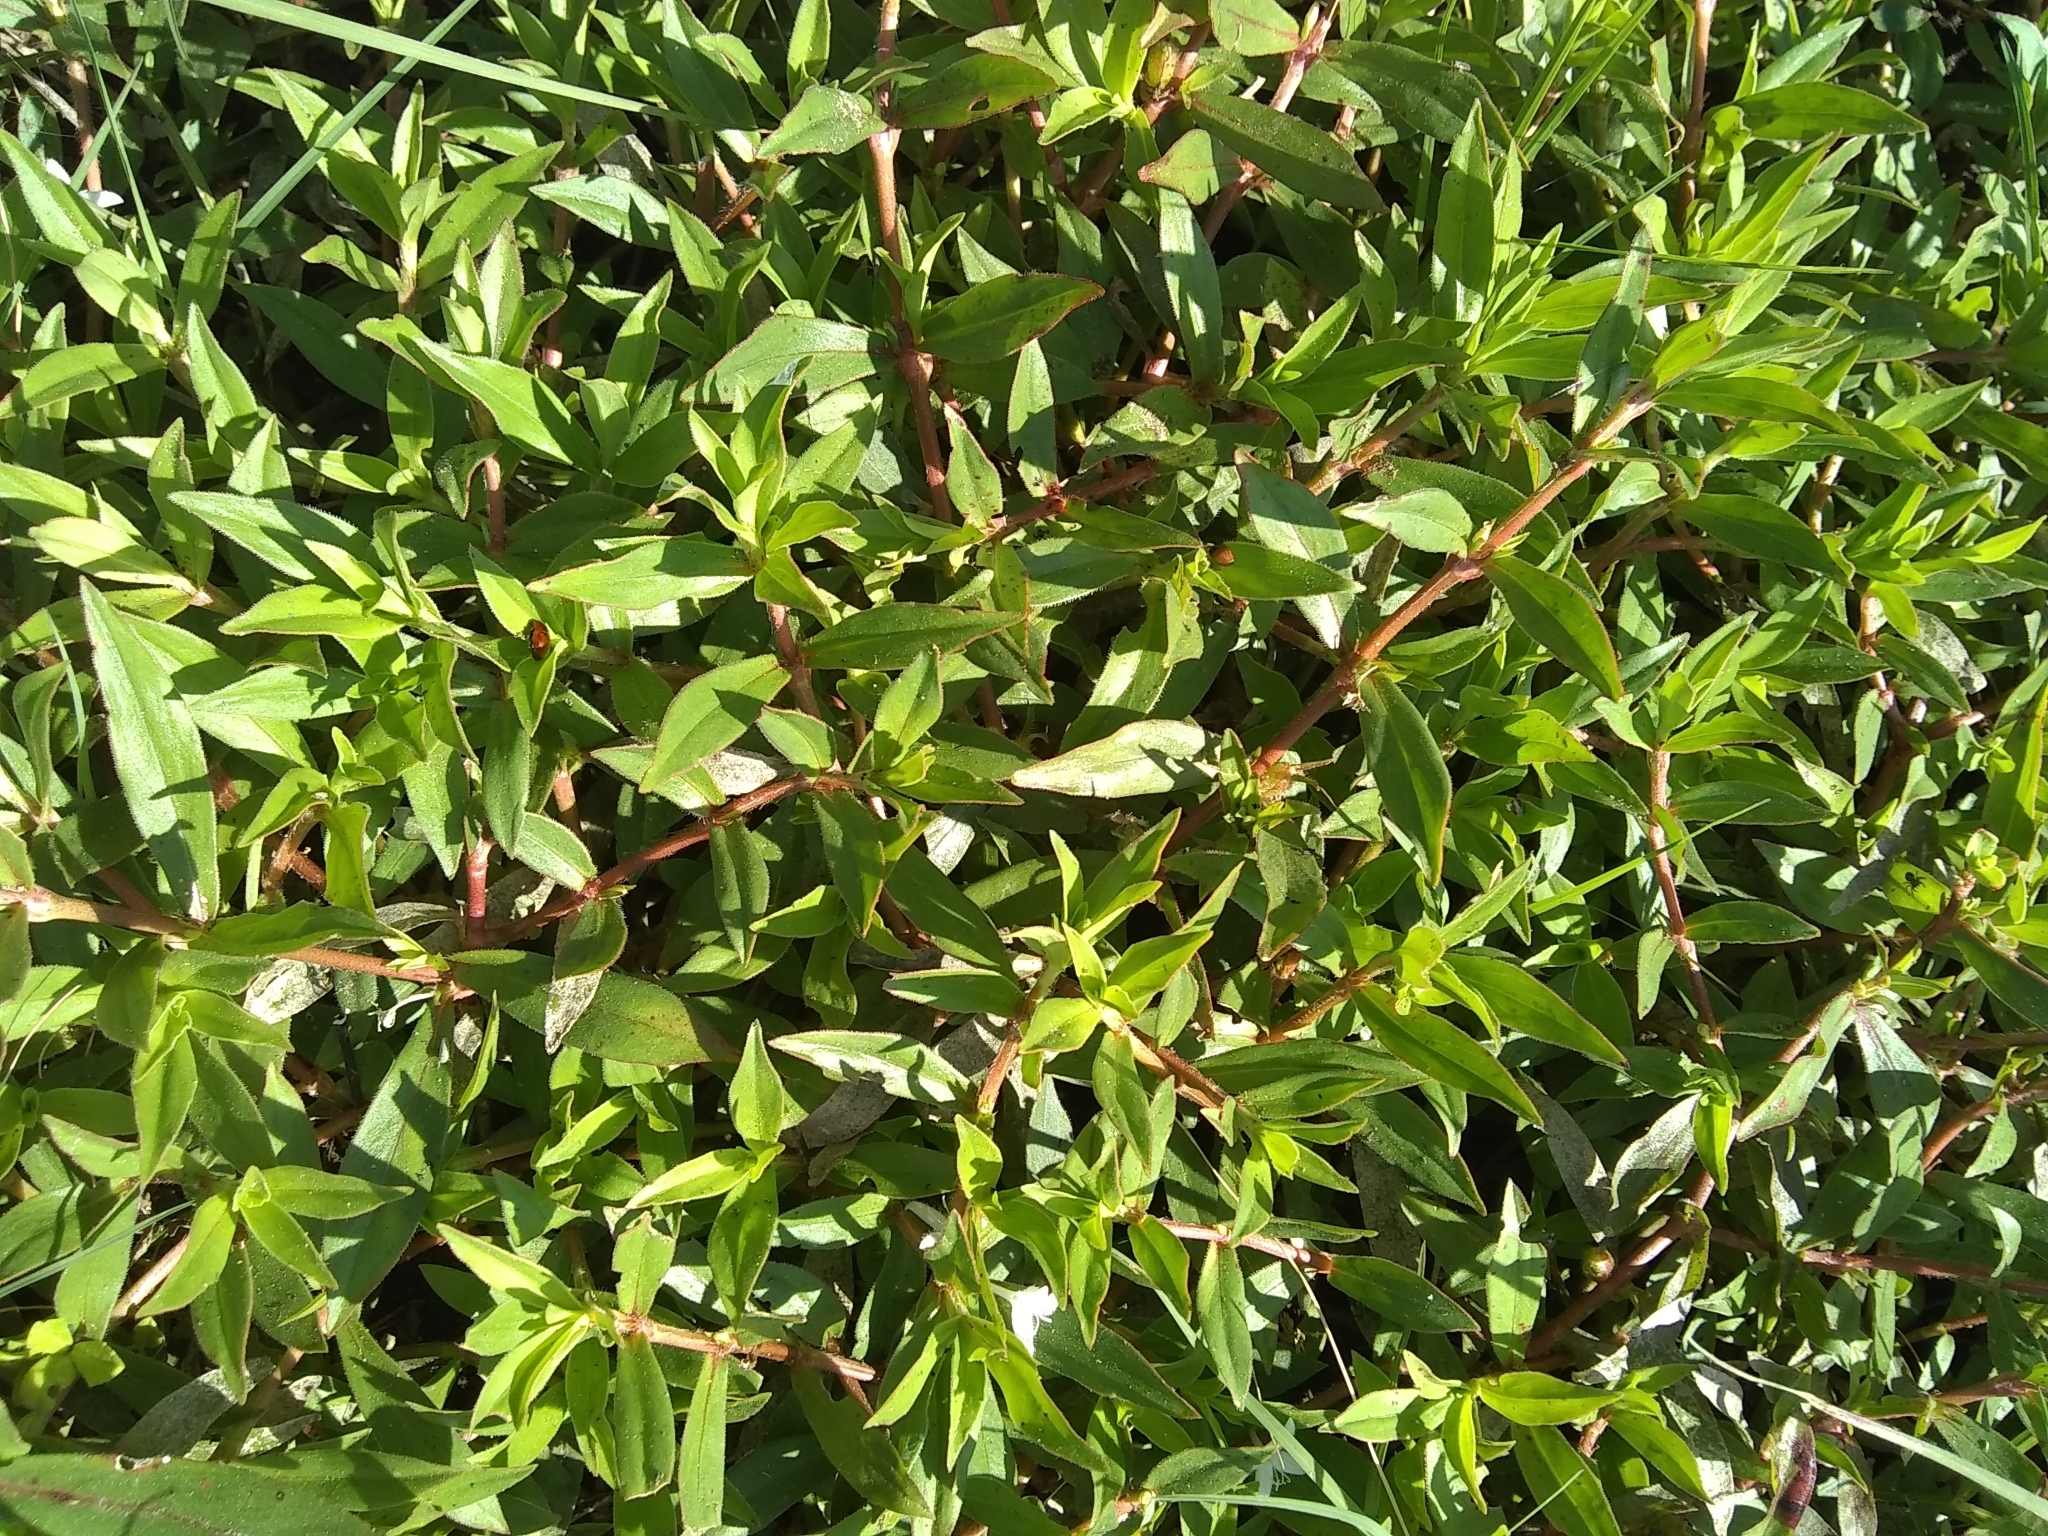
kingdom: Plantae
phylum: Tracheophyta
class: Magnoliopsida
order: Gentianales
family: Rubiaceae
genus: Diodia
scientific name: Diodia virginiana
